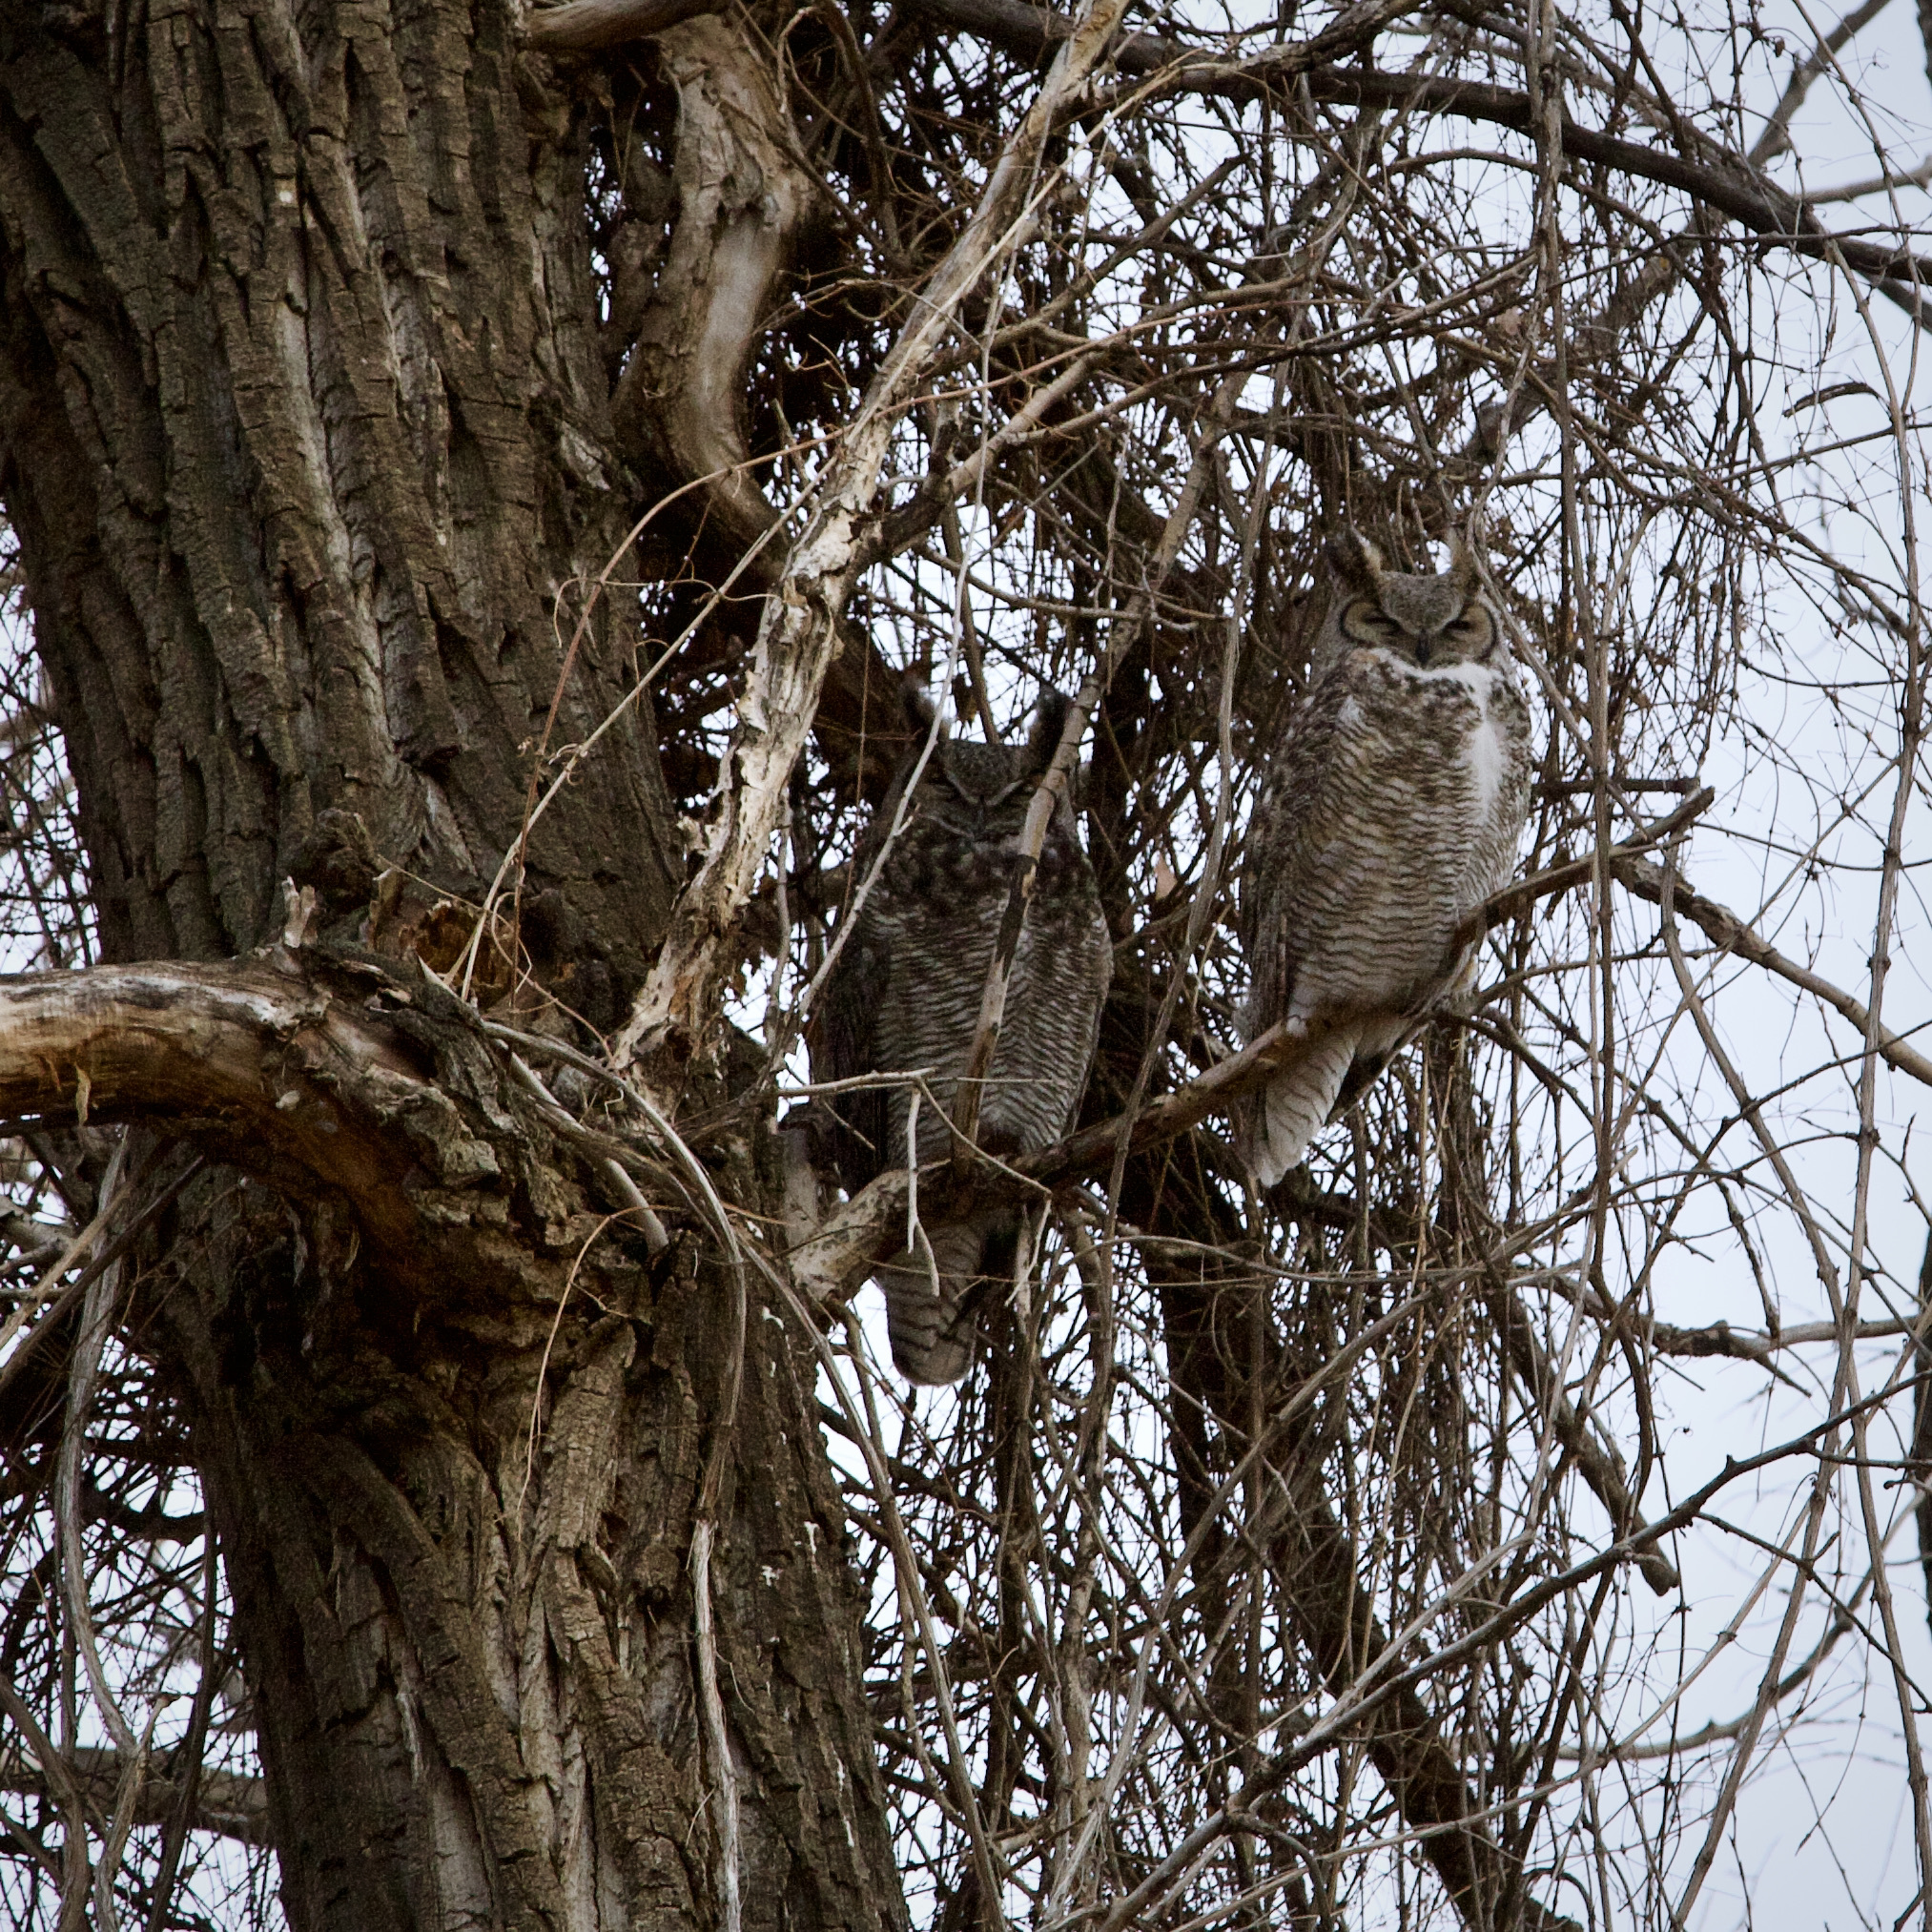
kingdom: Animalia
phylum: Chordata
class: Aves
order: Strigiformes
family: Strigidae
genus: Bubo
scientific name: Bubo virginianus
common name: Great horned owl
